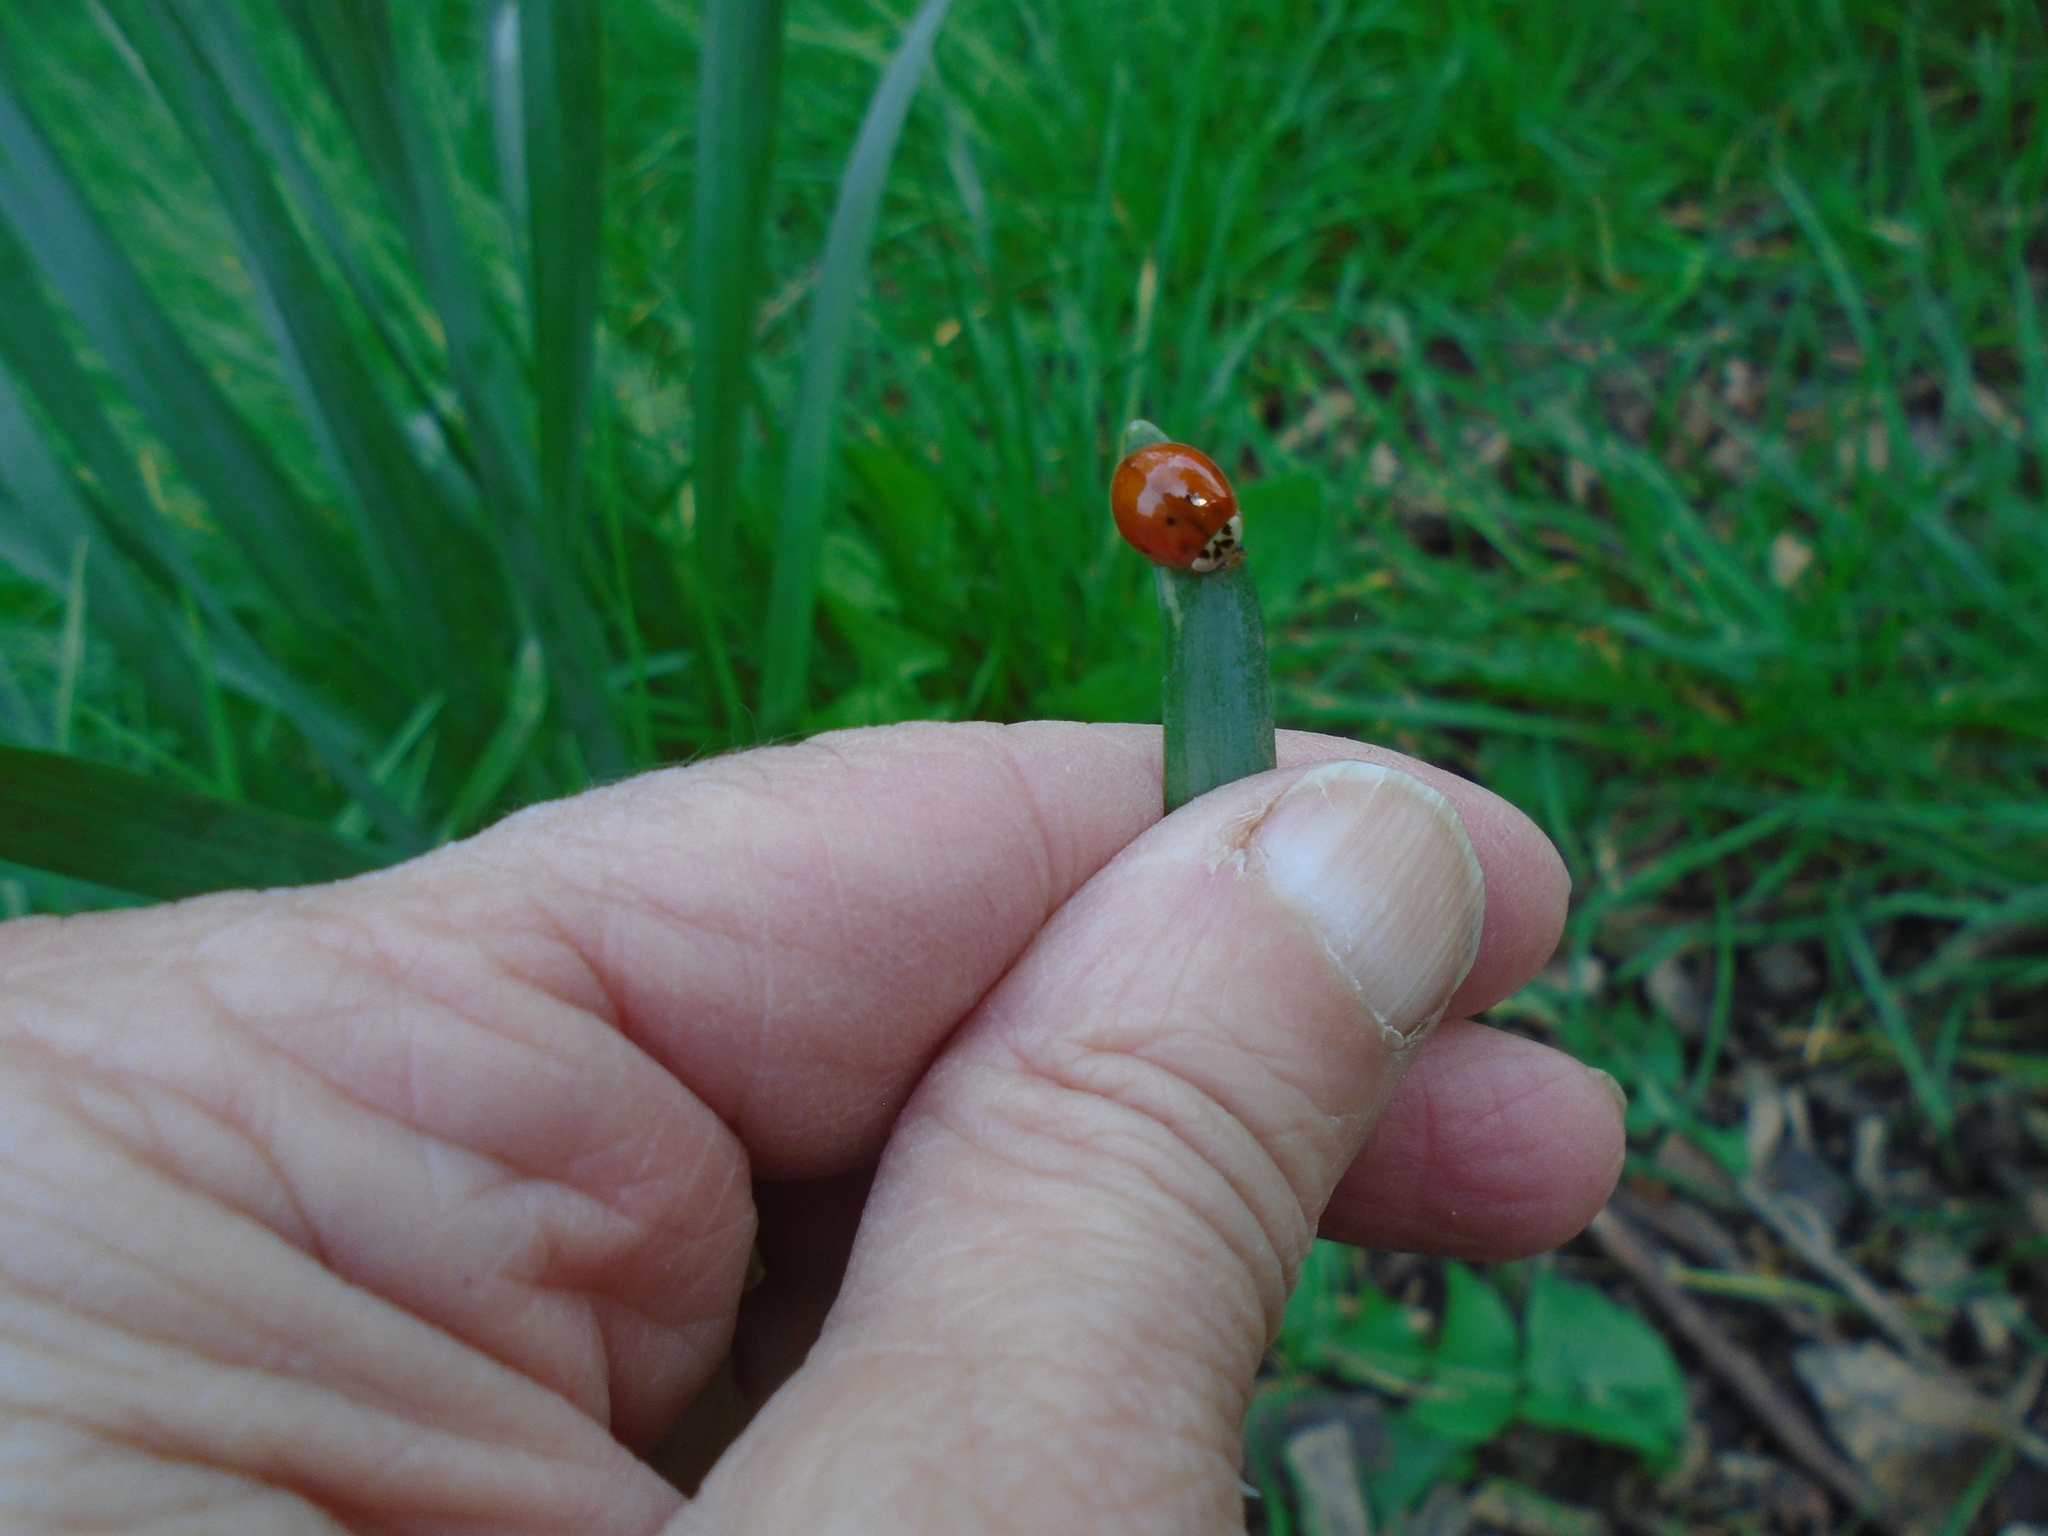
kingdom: Animalia
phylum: Arthropoda
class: Insecta
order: Coleoptera
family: Coccinellidae
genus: Harmonia
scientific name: Harmonia axyridis
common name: Harlequin ladybird
